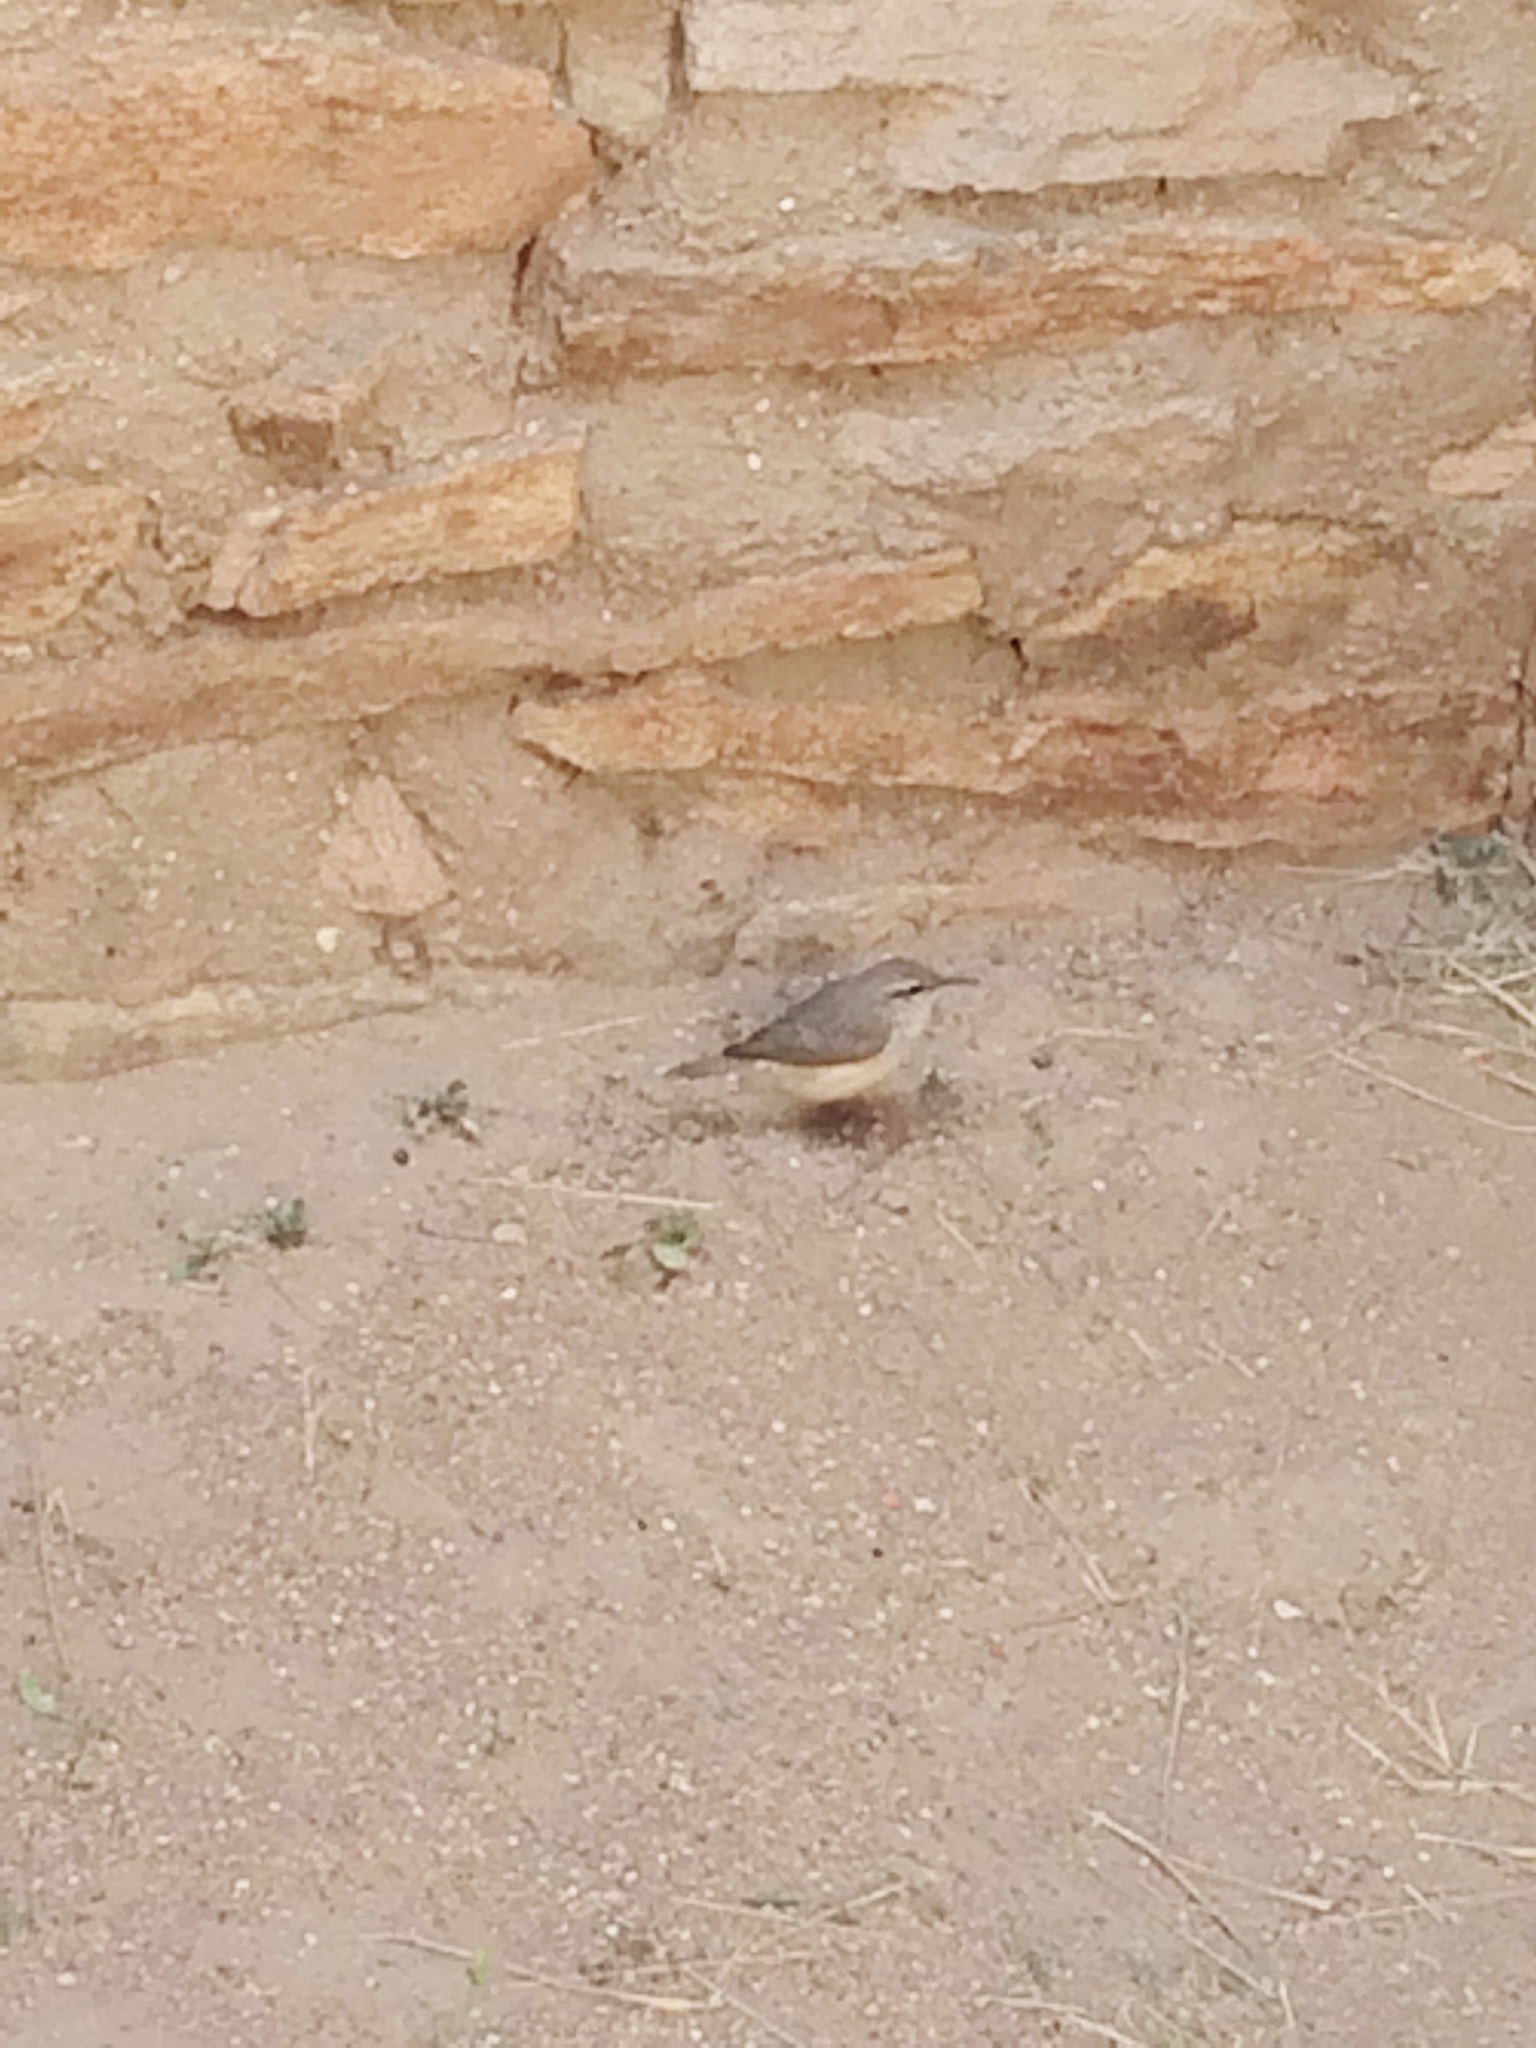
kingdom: Animalia
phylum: Chordata
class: Aves
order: Passeriformes
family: Troglodytidae
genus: Salpinctes
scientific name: Salpinctes obsoletus
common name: Rock wren
